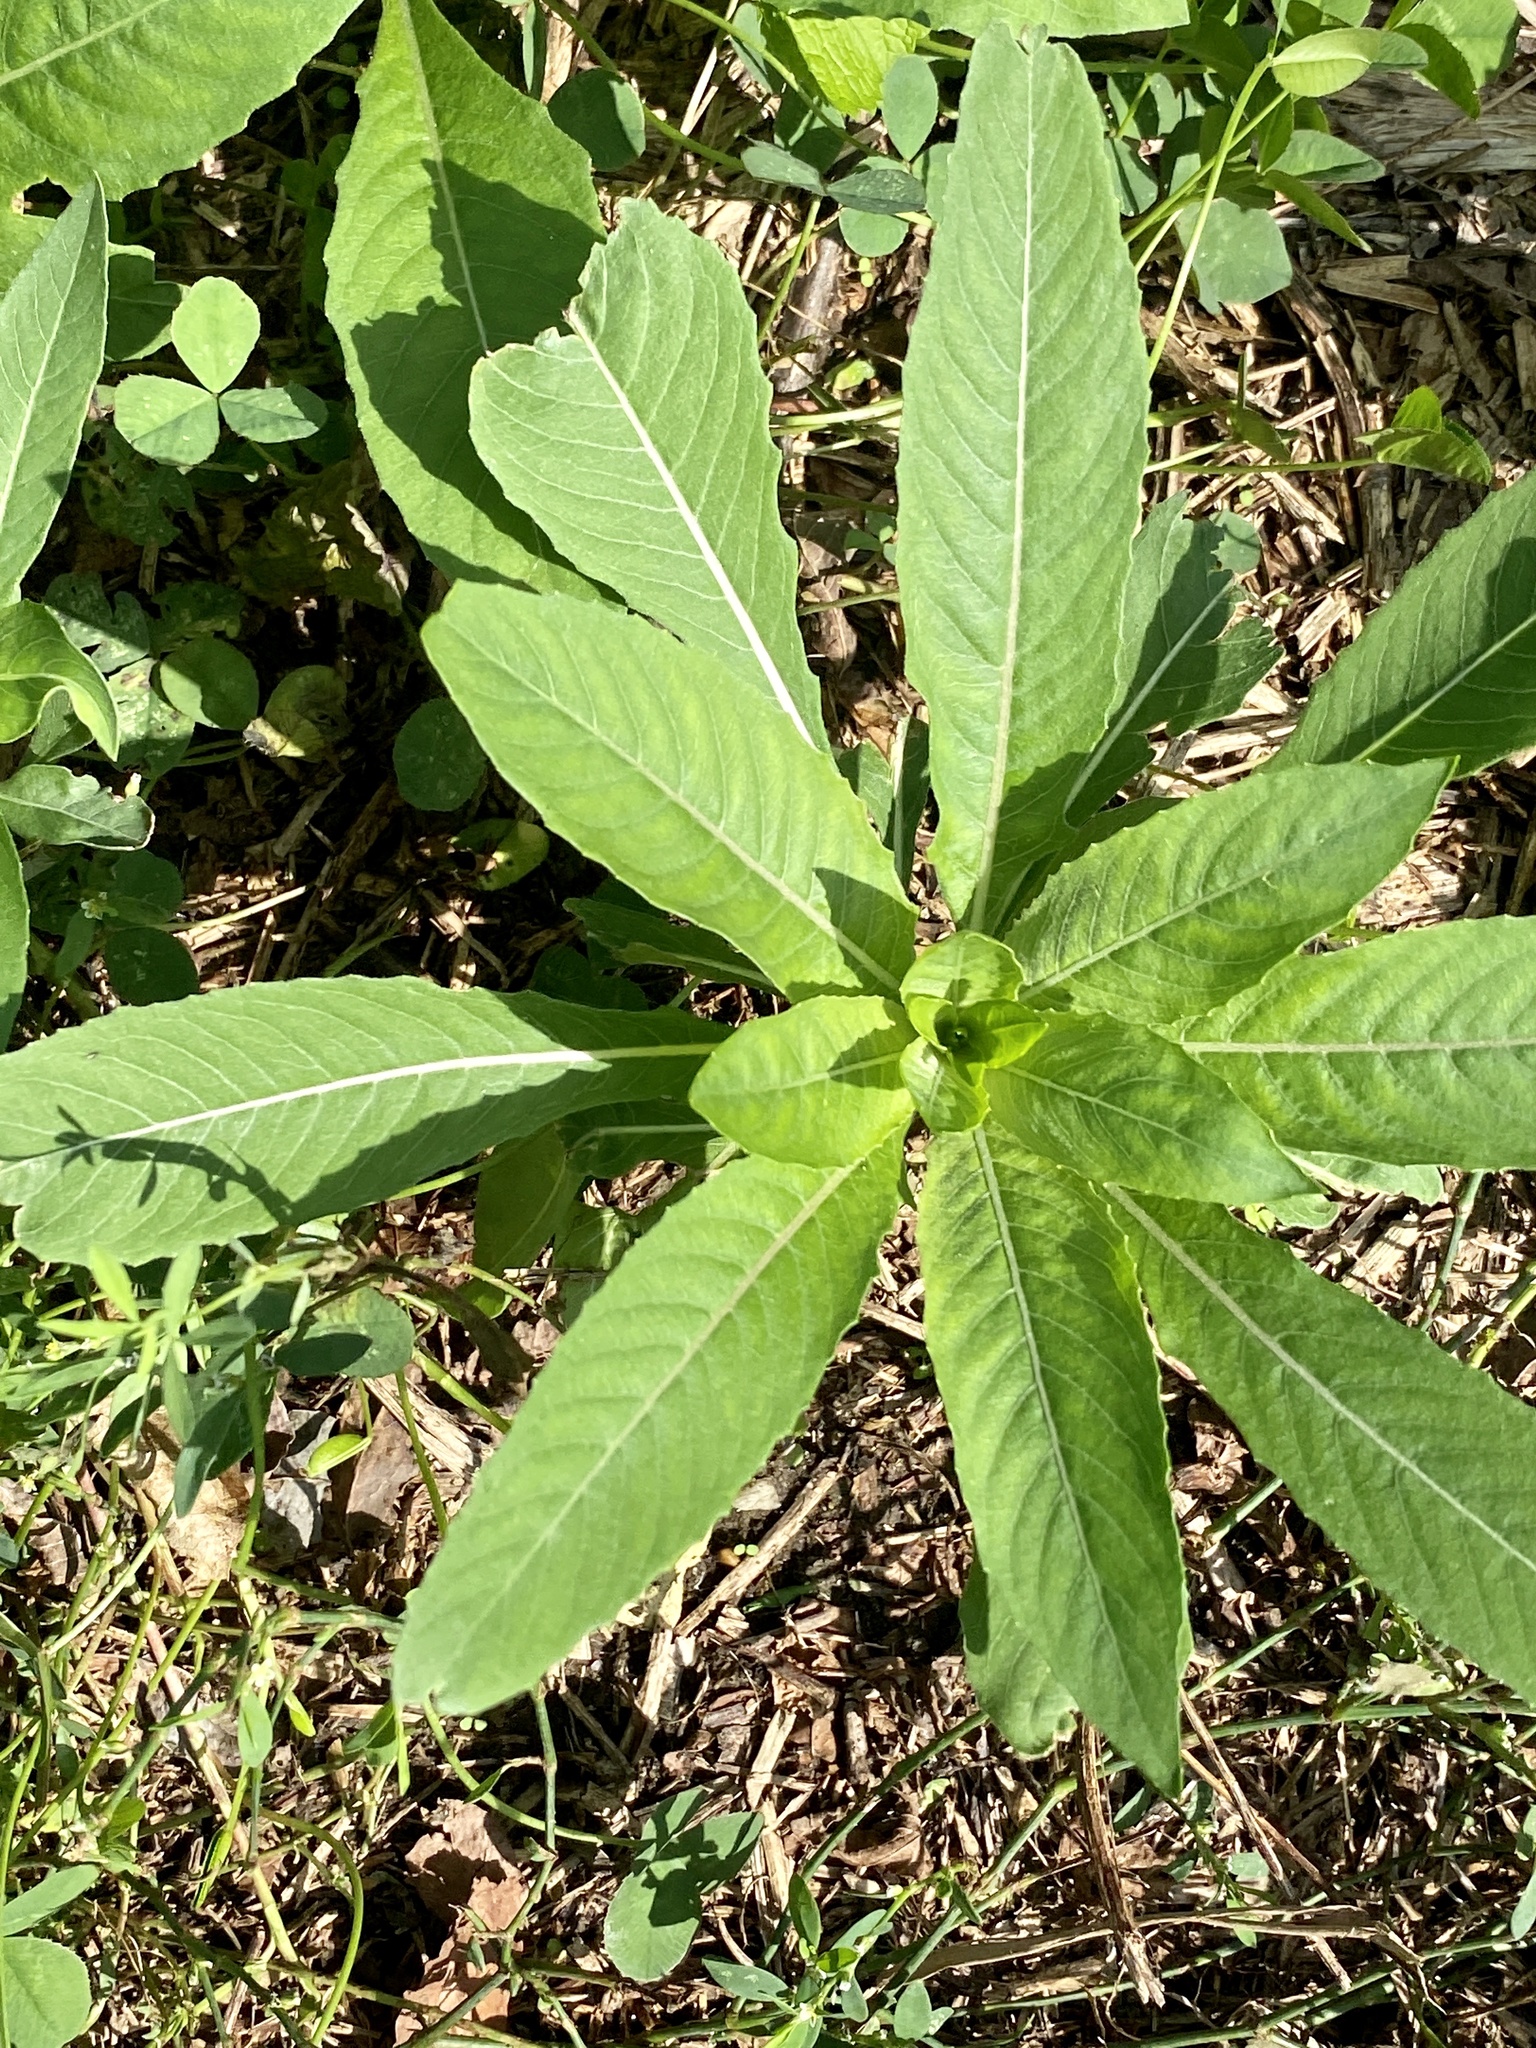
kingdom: Plantae
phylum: Tracheophyta
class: Magnoliopsida
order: Myrtales
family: Onagraceae
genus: Oenothera
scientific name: Oenothera biennis
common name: Common evening-primrose
